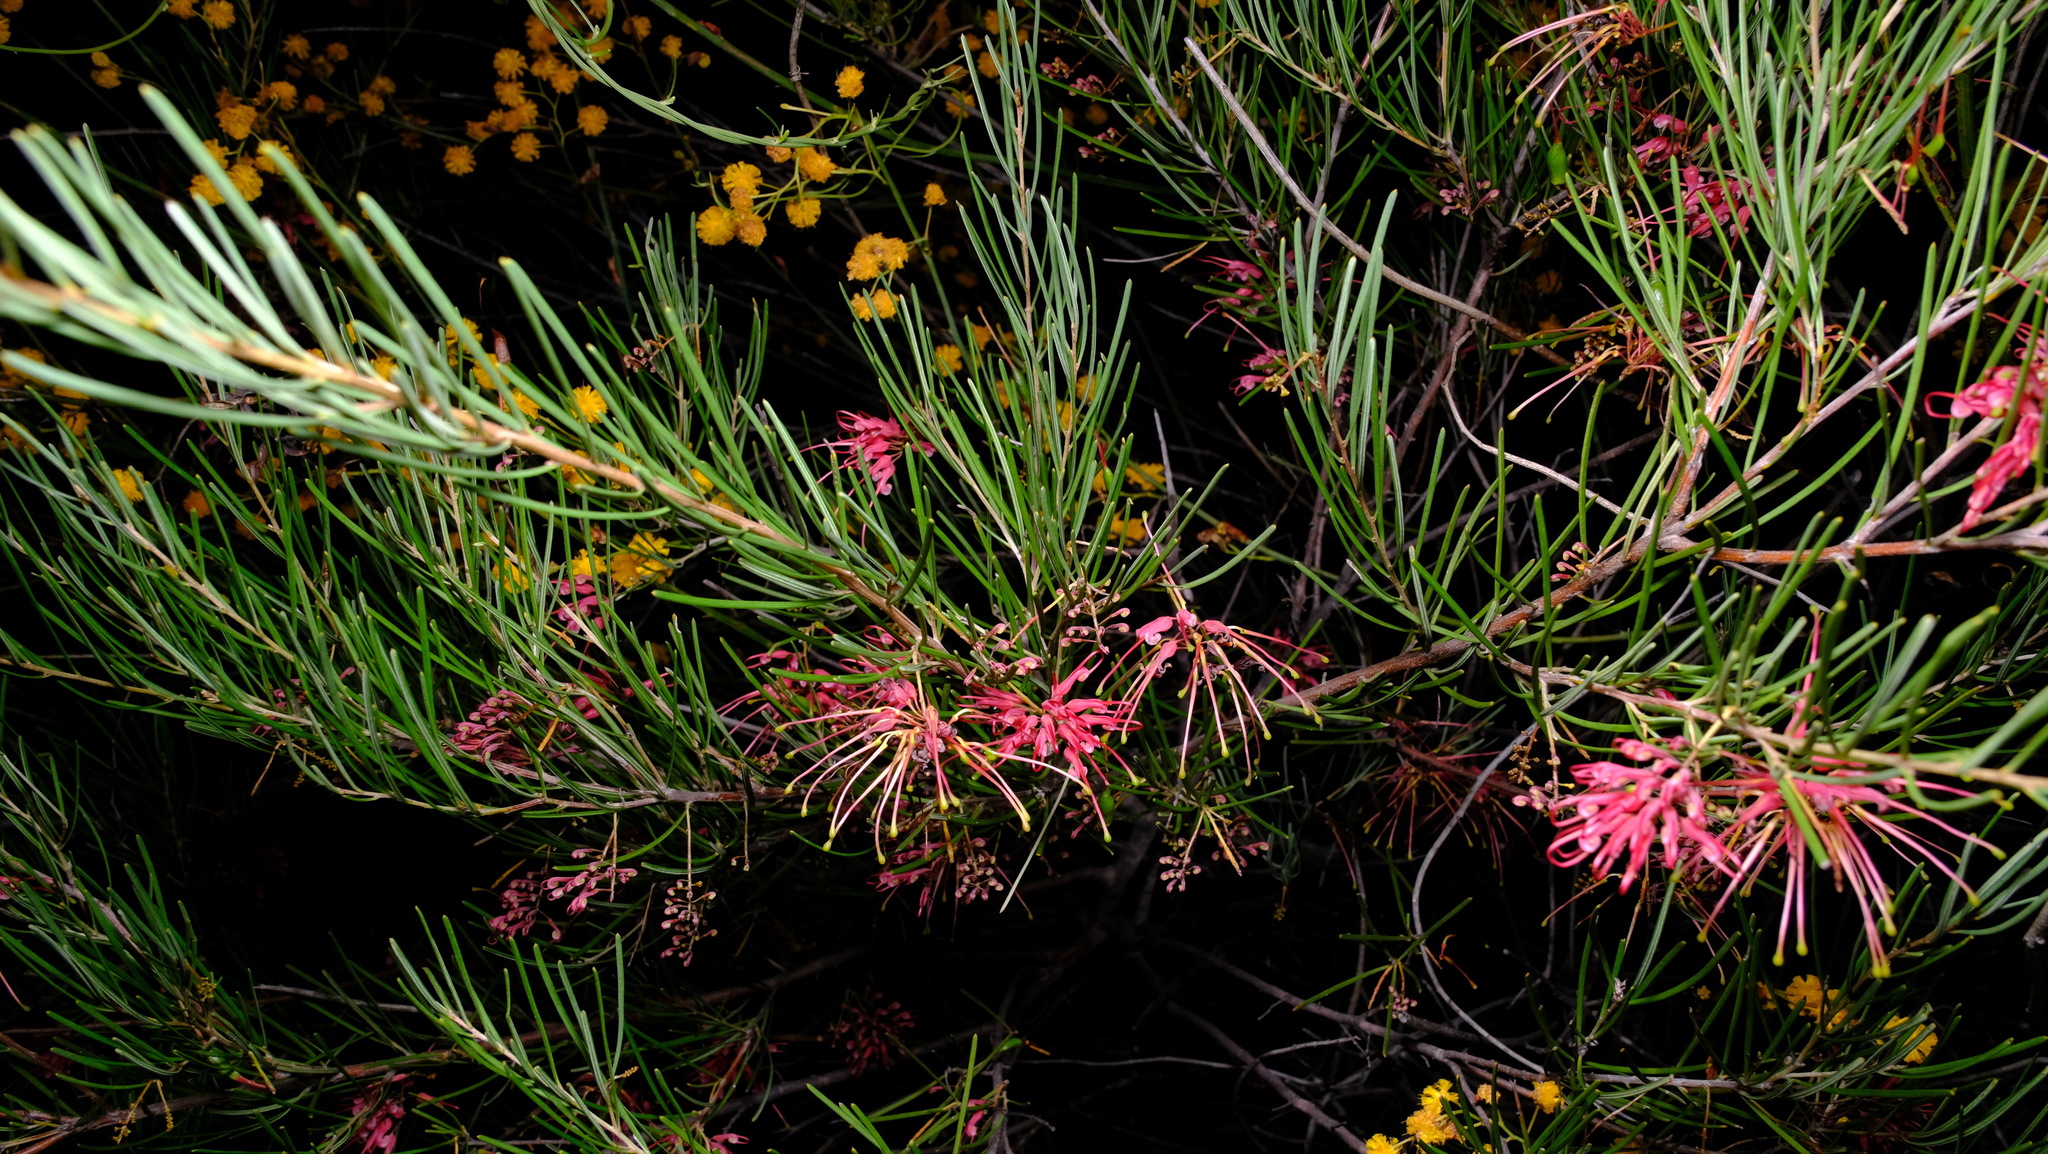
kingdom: Plantae
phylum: Tracheophyta
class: Magnoliopsida
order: Proteales
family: Proteaceae
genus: Grevillea
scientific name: Grevillea pinaster
